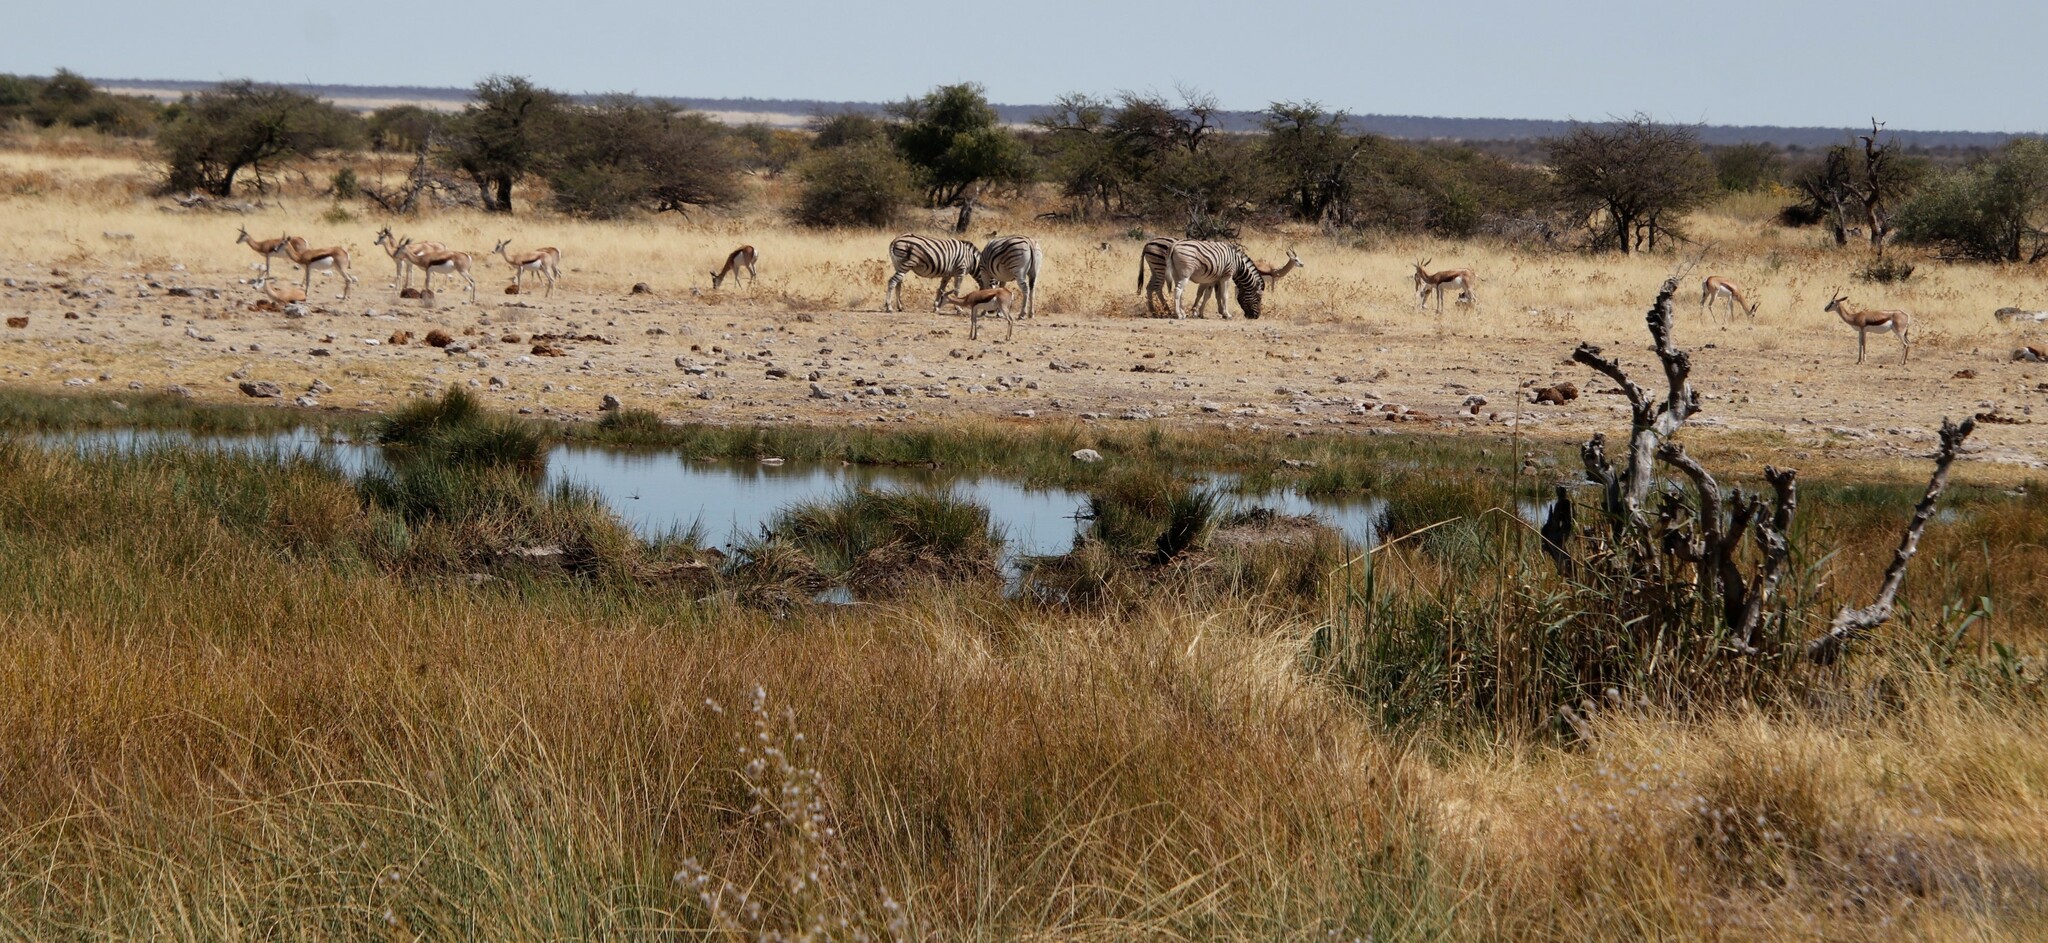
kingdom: Animalia
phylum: Chordata
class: Mammalia
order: Perissodactyla
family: Equidae
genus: Equus
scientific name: Equus quagga
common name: Plains zebra
